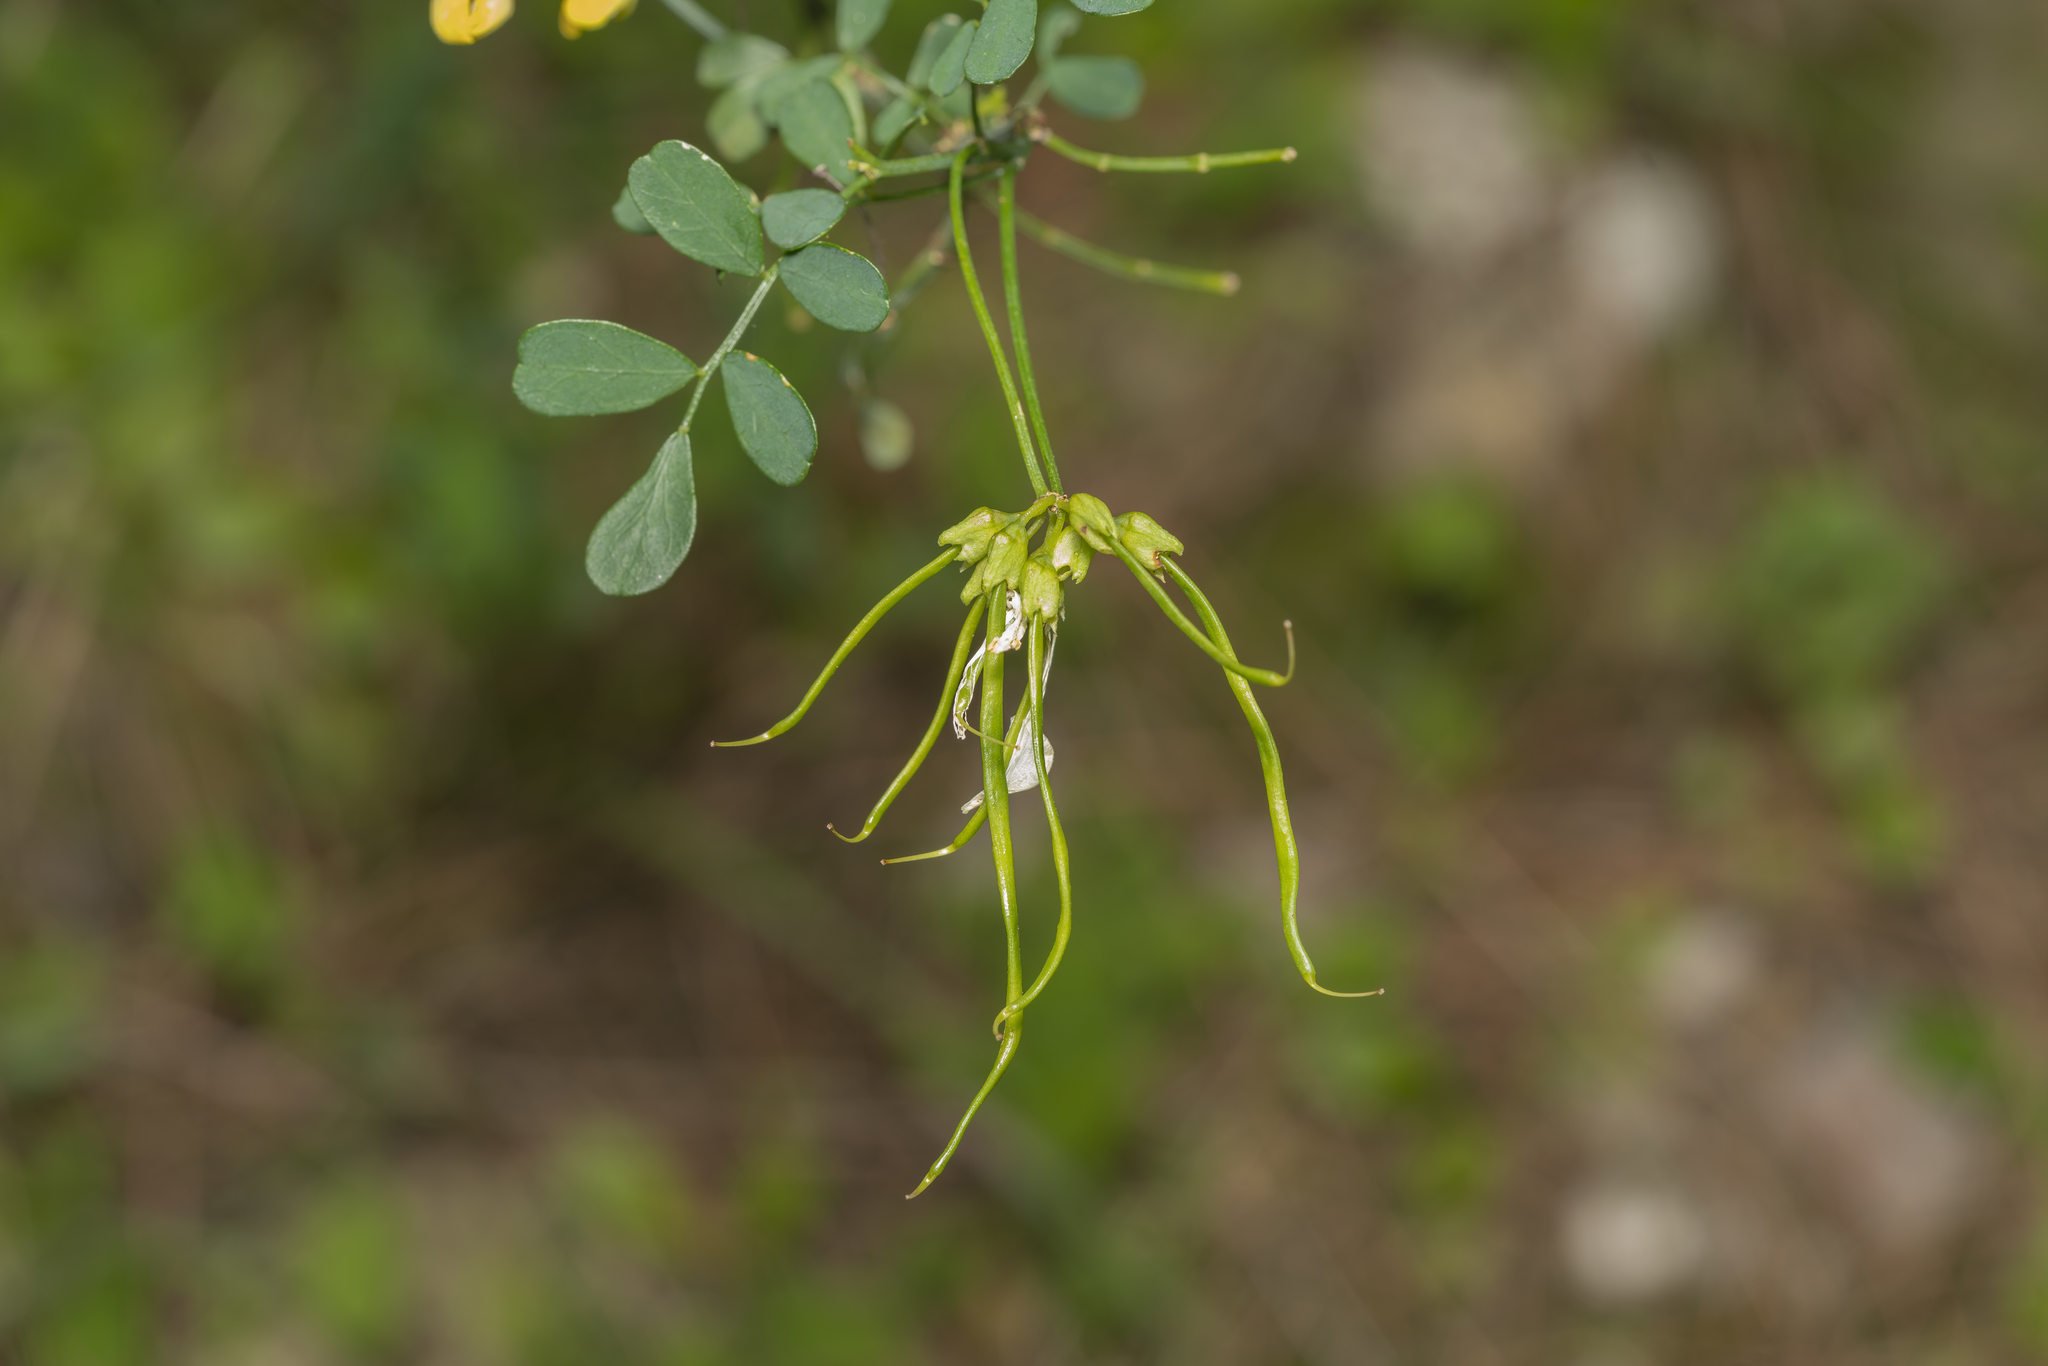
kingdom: Plantae
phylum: Tracheophyta
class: Magnoliopsida
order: Fabales
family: Fabaceae
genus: Hippocrepis
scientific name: Hippocrepis emerus
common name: Scorpion senna
